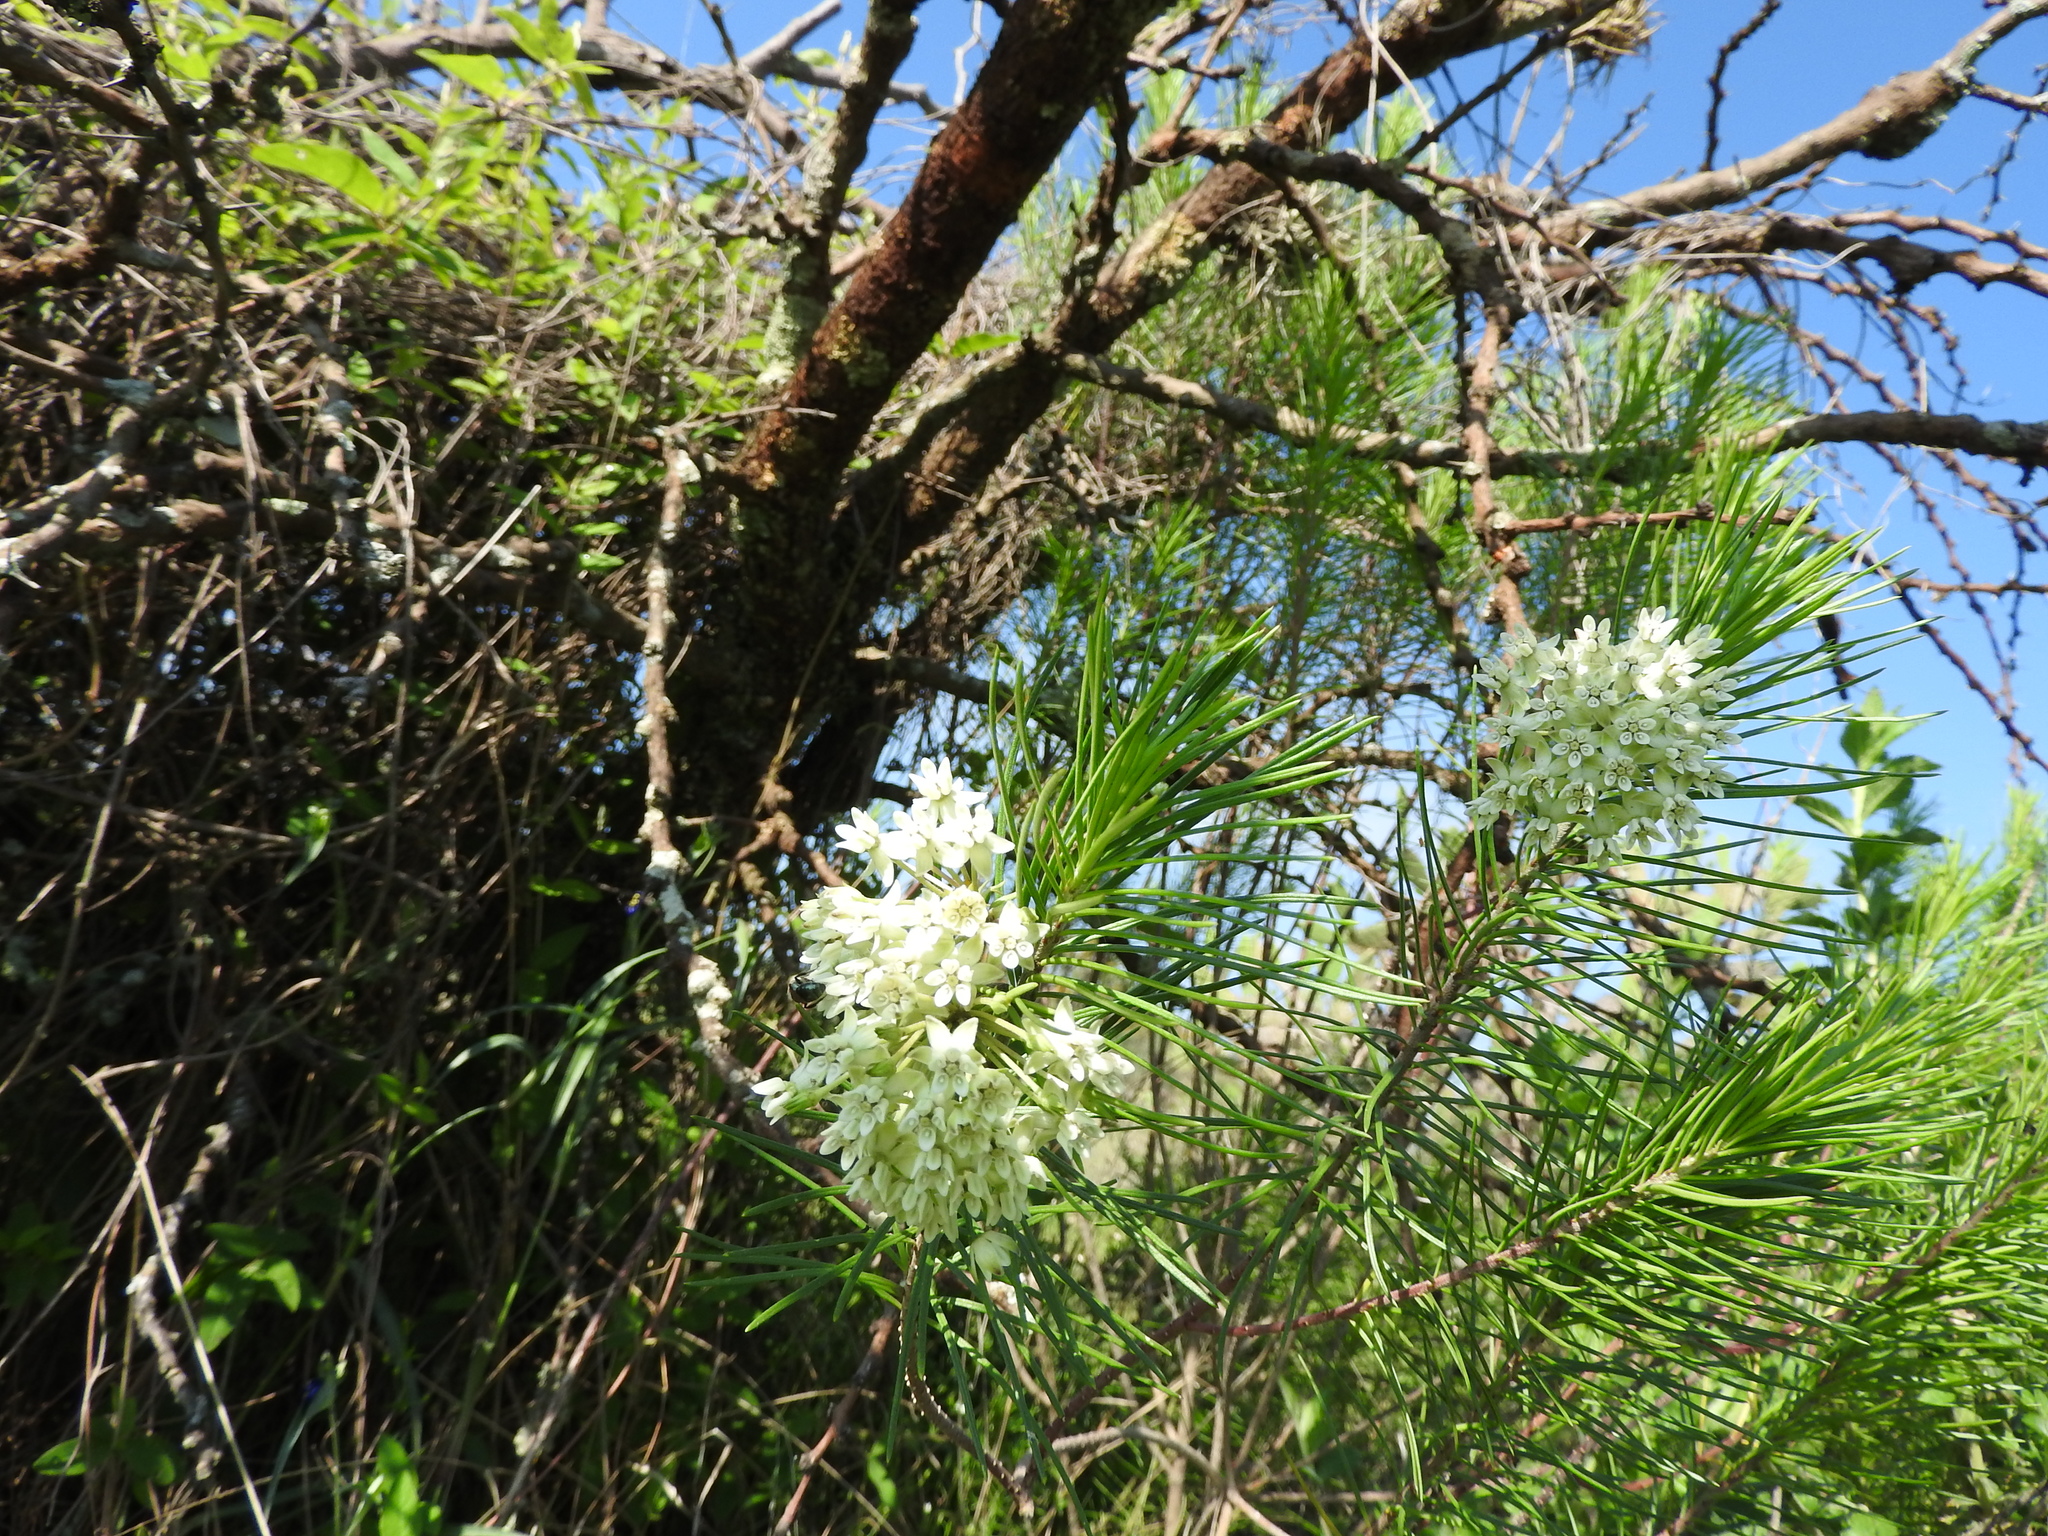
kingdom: Plantae
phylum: Tracheophyta
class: Magnoliopsida
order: Gentianales
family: Apocynaceae
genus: Asclepias
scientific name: Asclepias linaria
